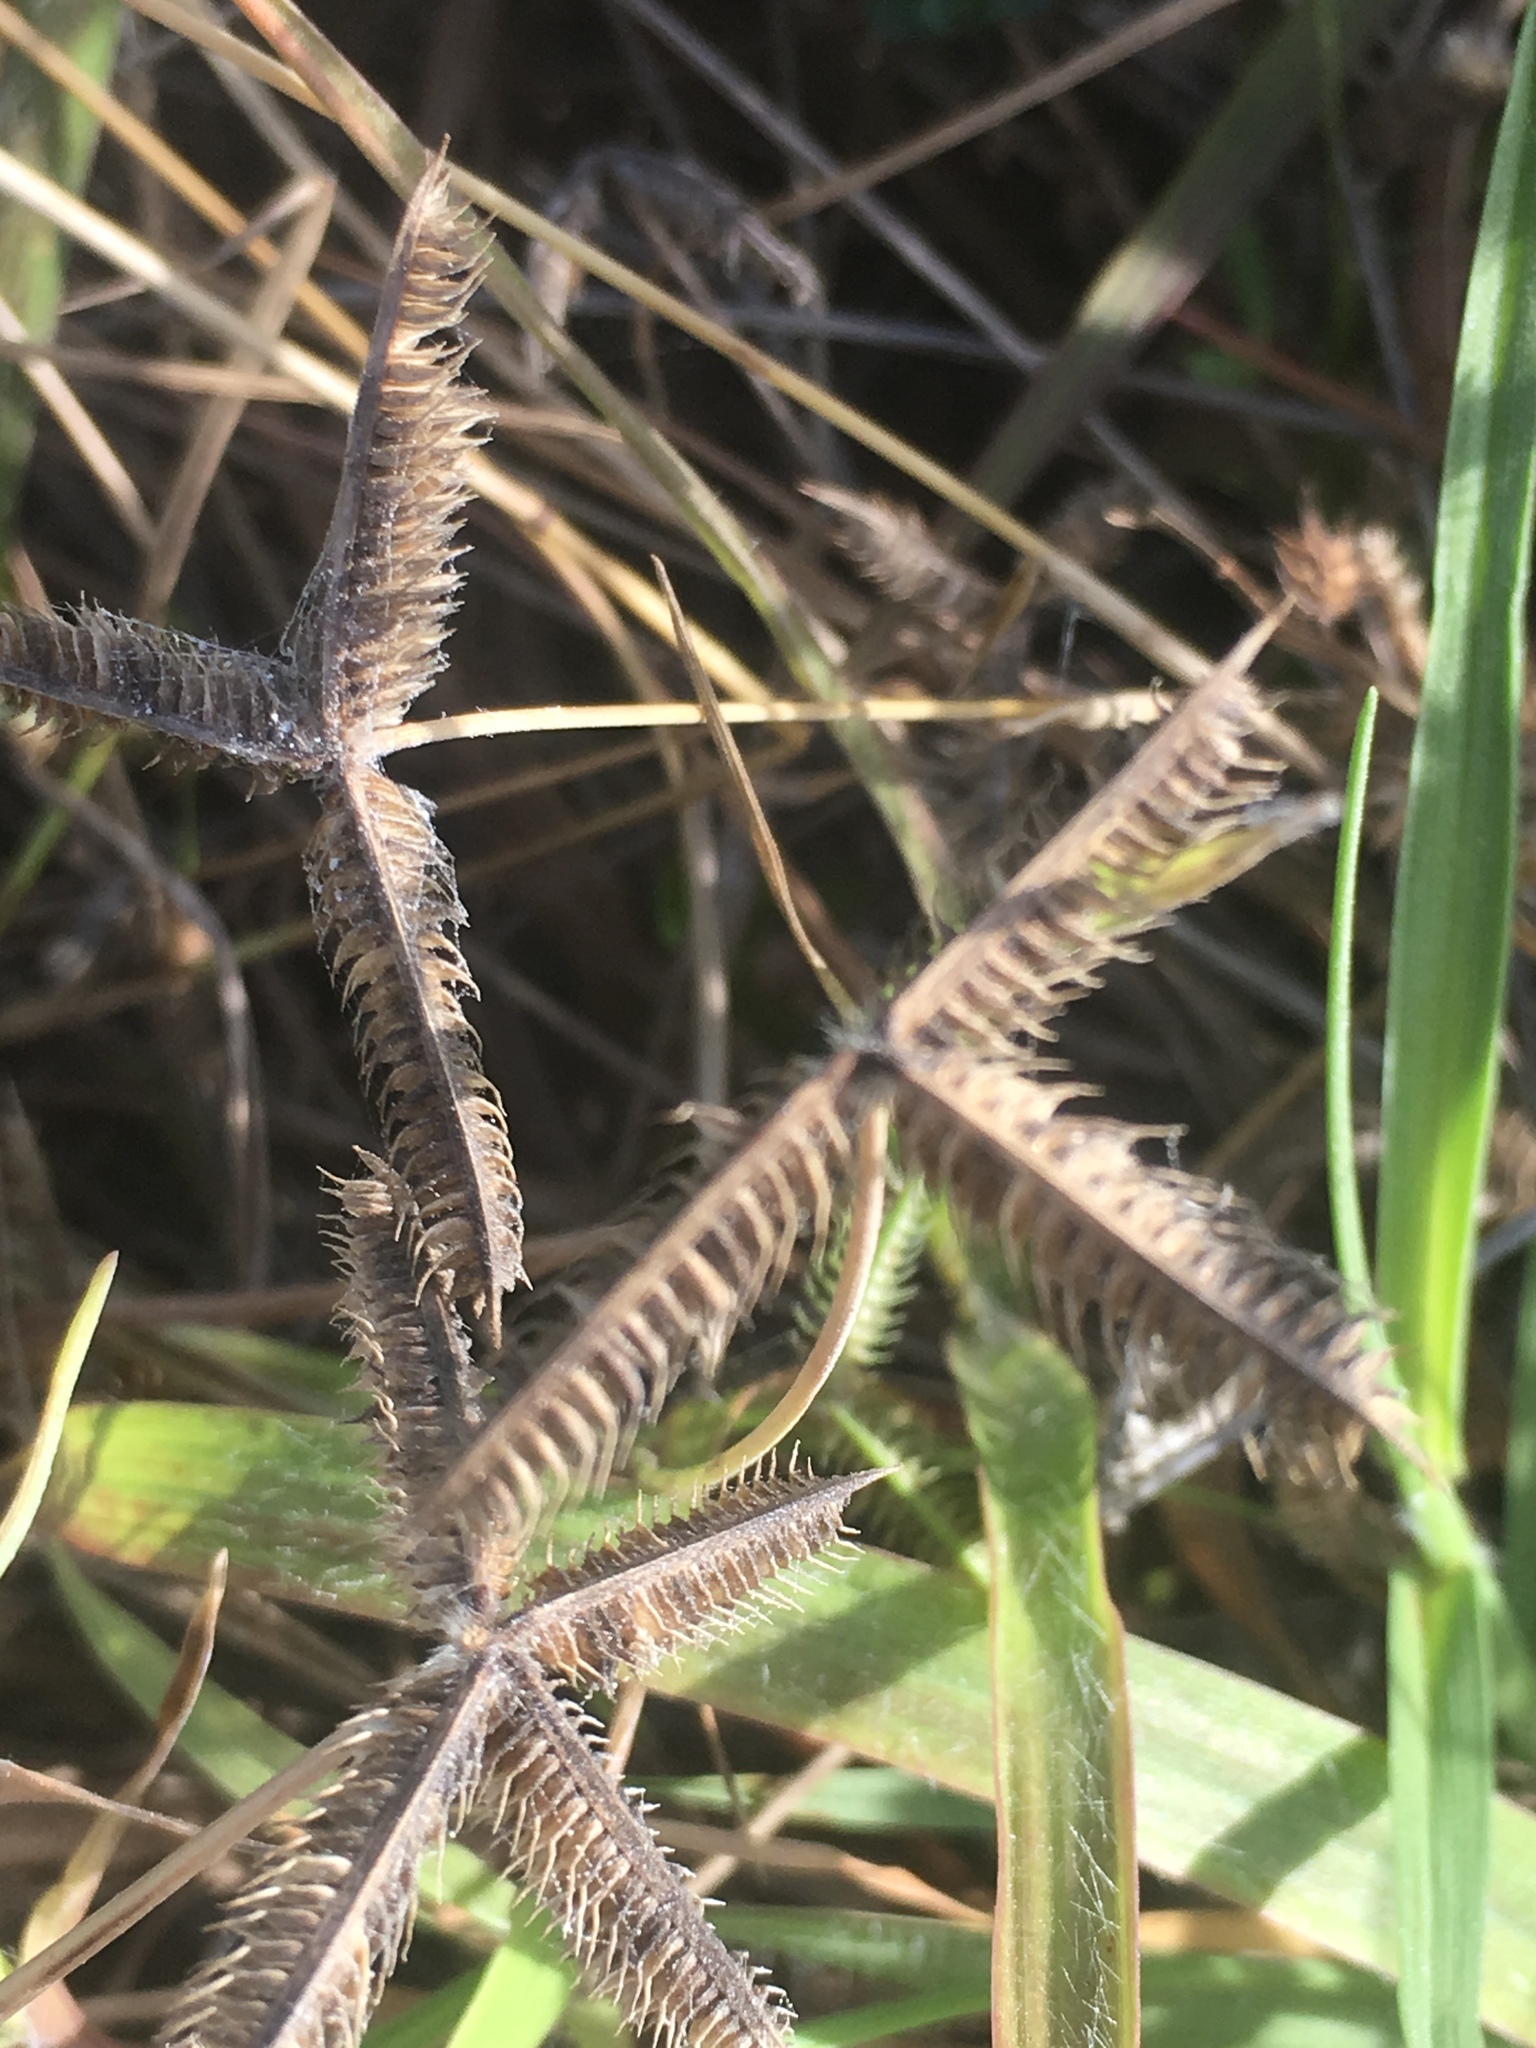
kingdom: Plantae
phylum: Tracheophyta
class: Liliopsida
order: Poales
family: Poaceae
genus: Dactyloctenium
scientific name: Dactyloctenium aegyptium
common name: Egyptian grass
